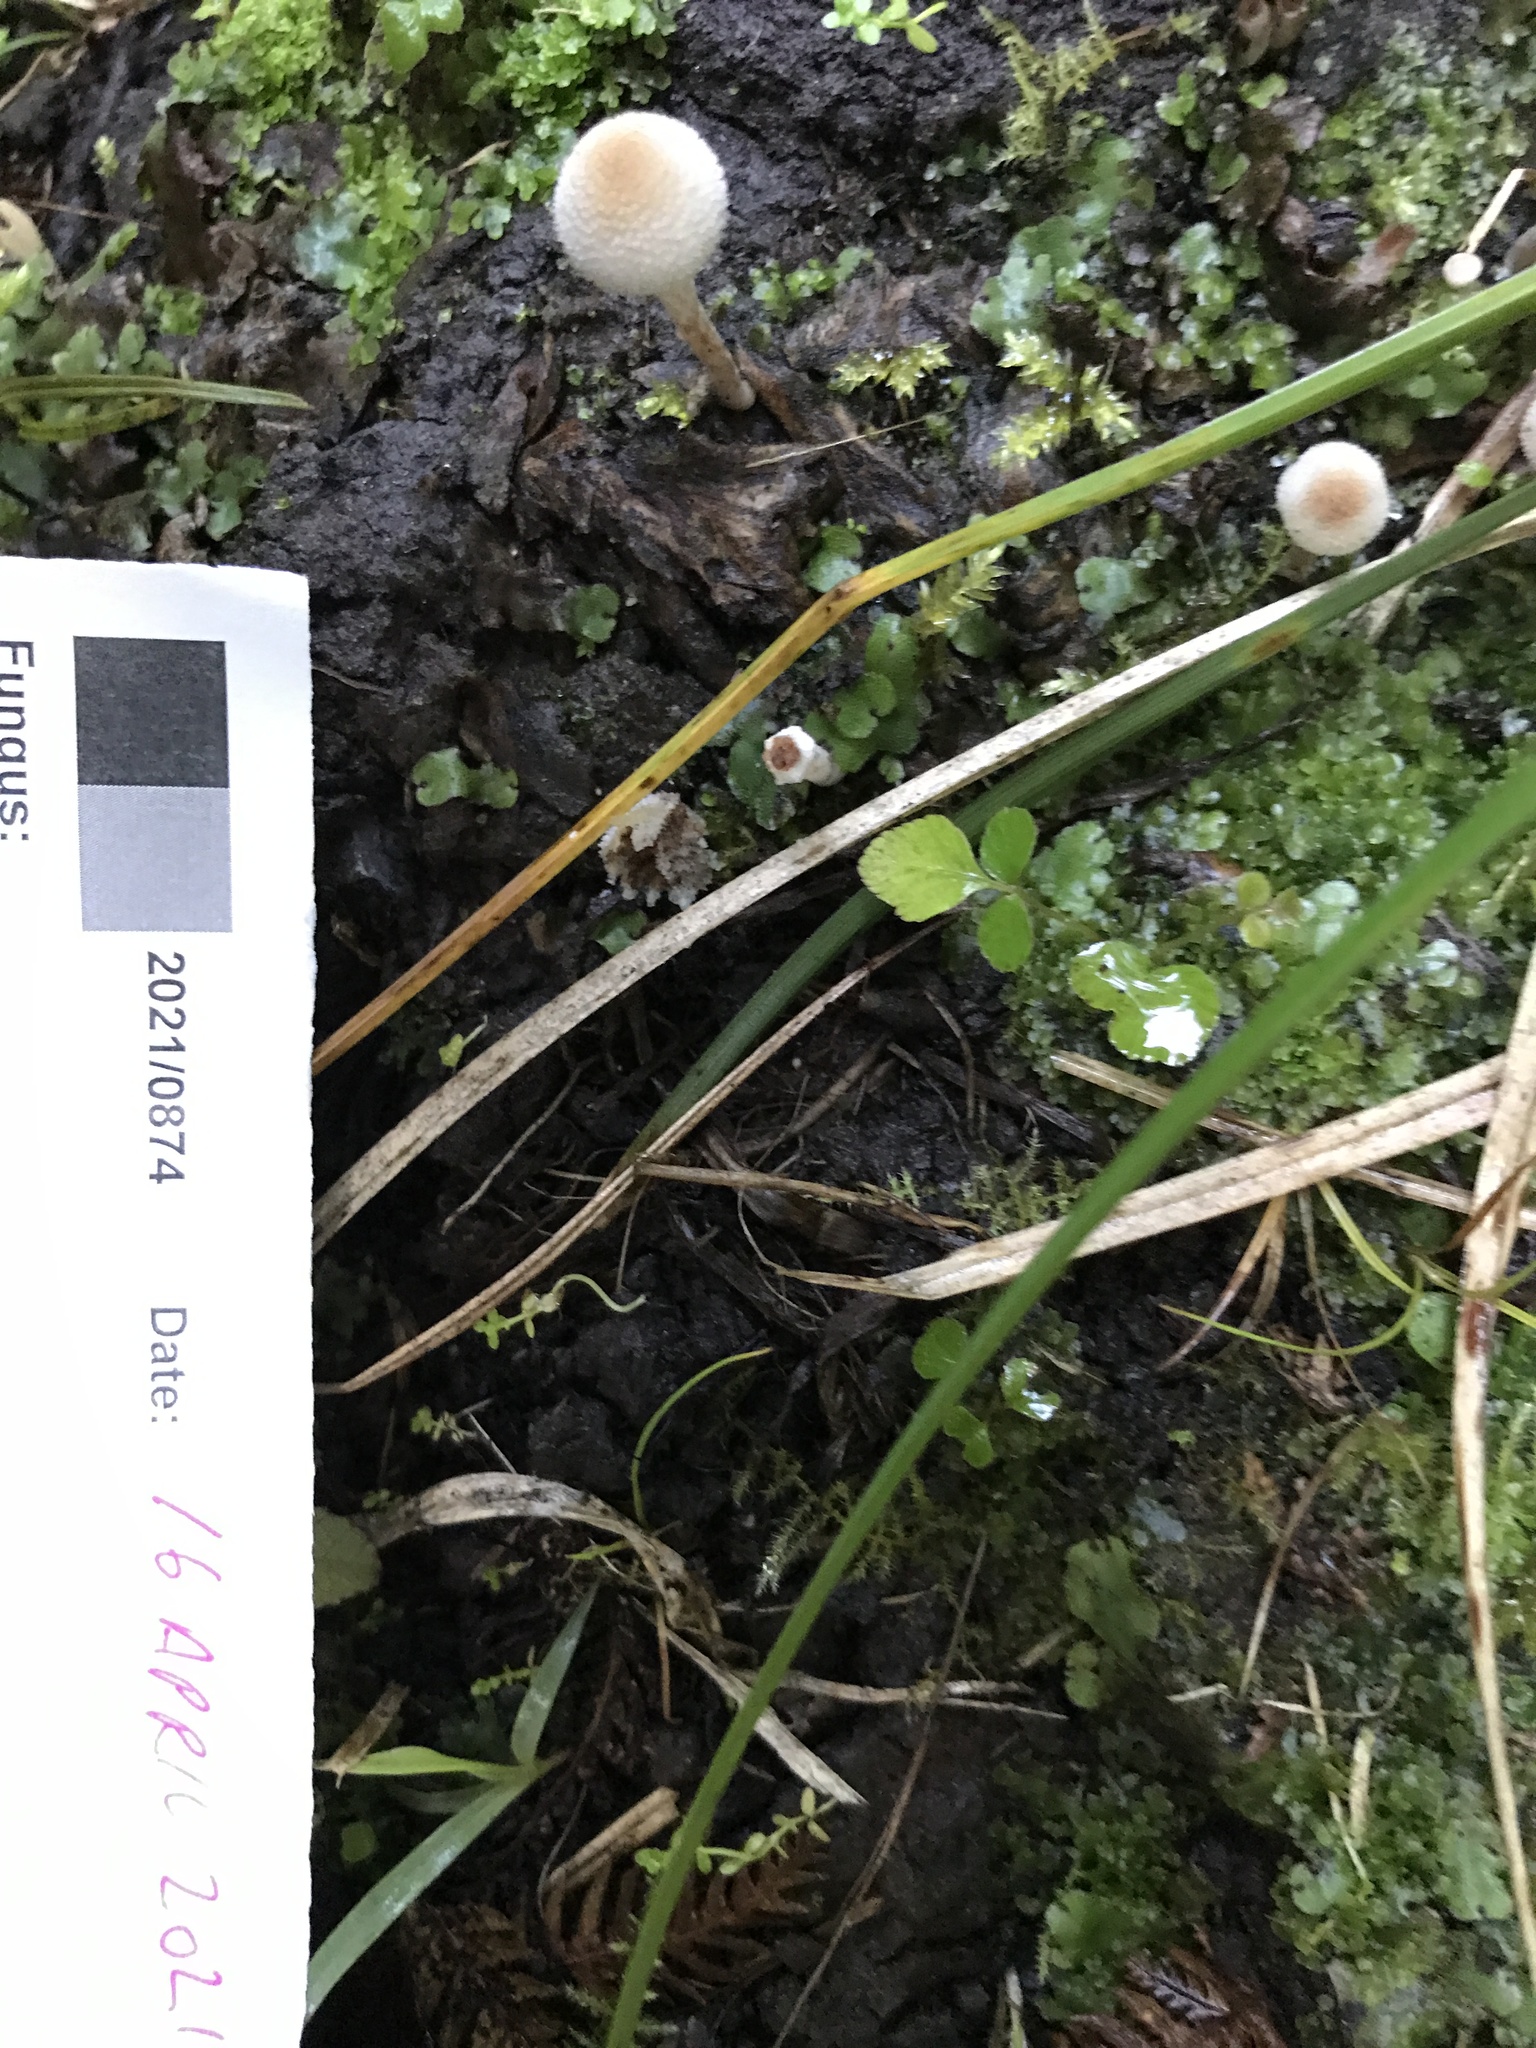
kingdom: Fungi
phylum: Basidiomycota
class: Agaricomycetes
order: Agaricales
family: Bolbitiaceae
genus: Tympanella
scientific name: Tympanella galanthina
